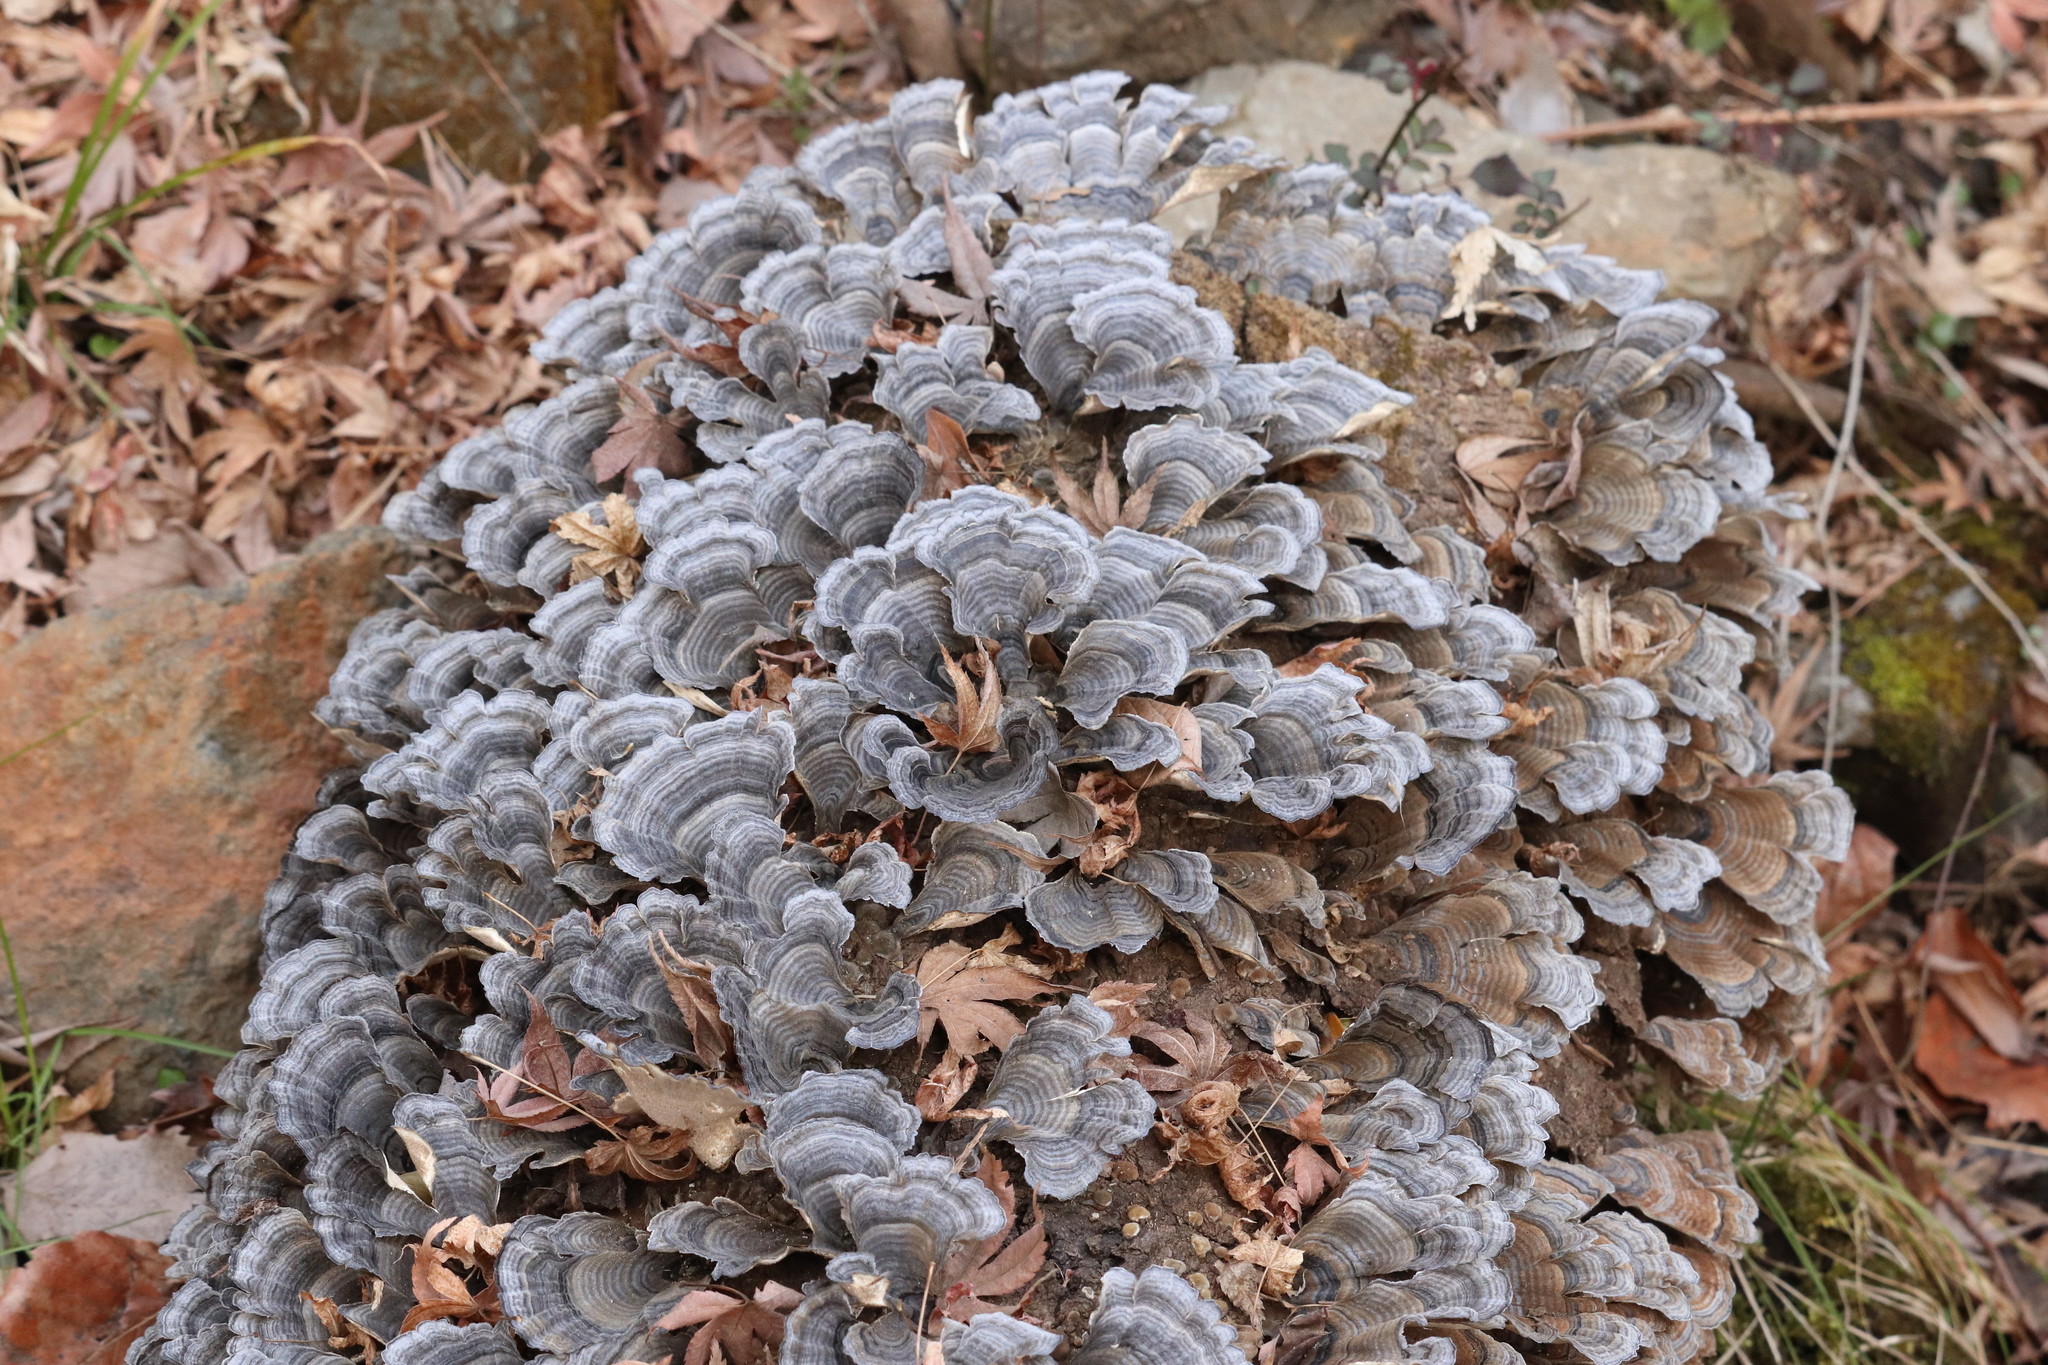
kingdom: Fungi
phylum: Basidiomycota
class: Agaricomycetes
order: Polyporales
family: Polyporaceae
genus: Trametes
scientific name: Trametes versicolor
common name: Turkeytail
